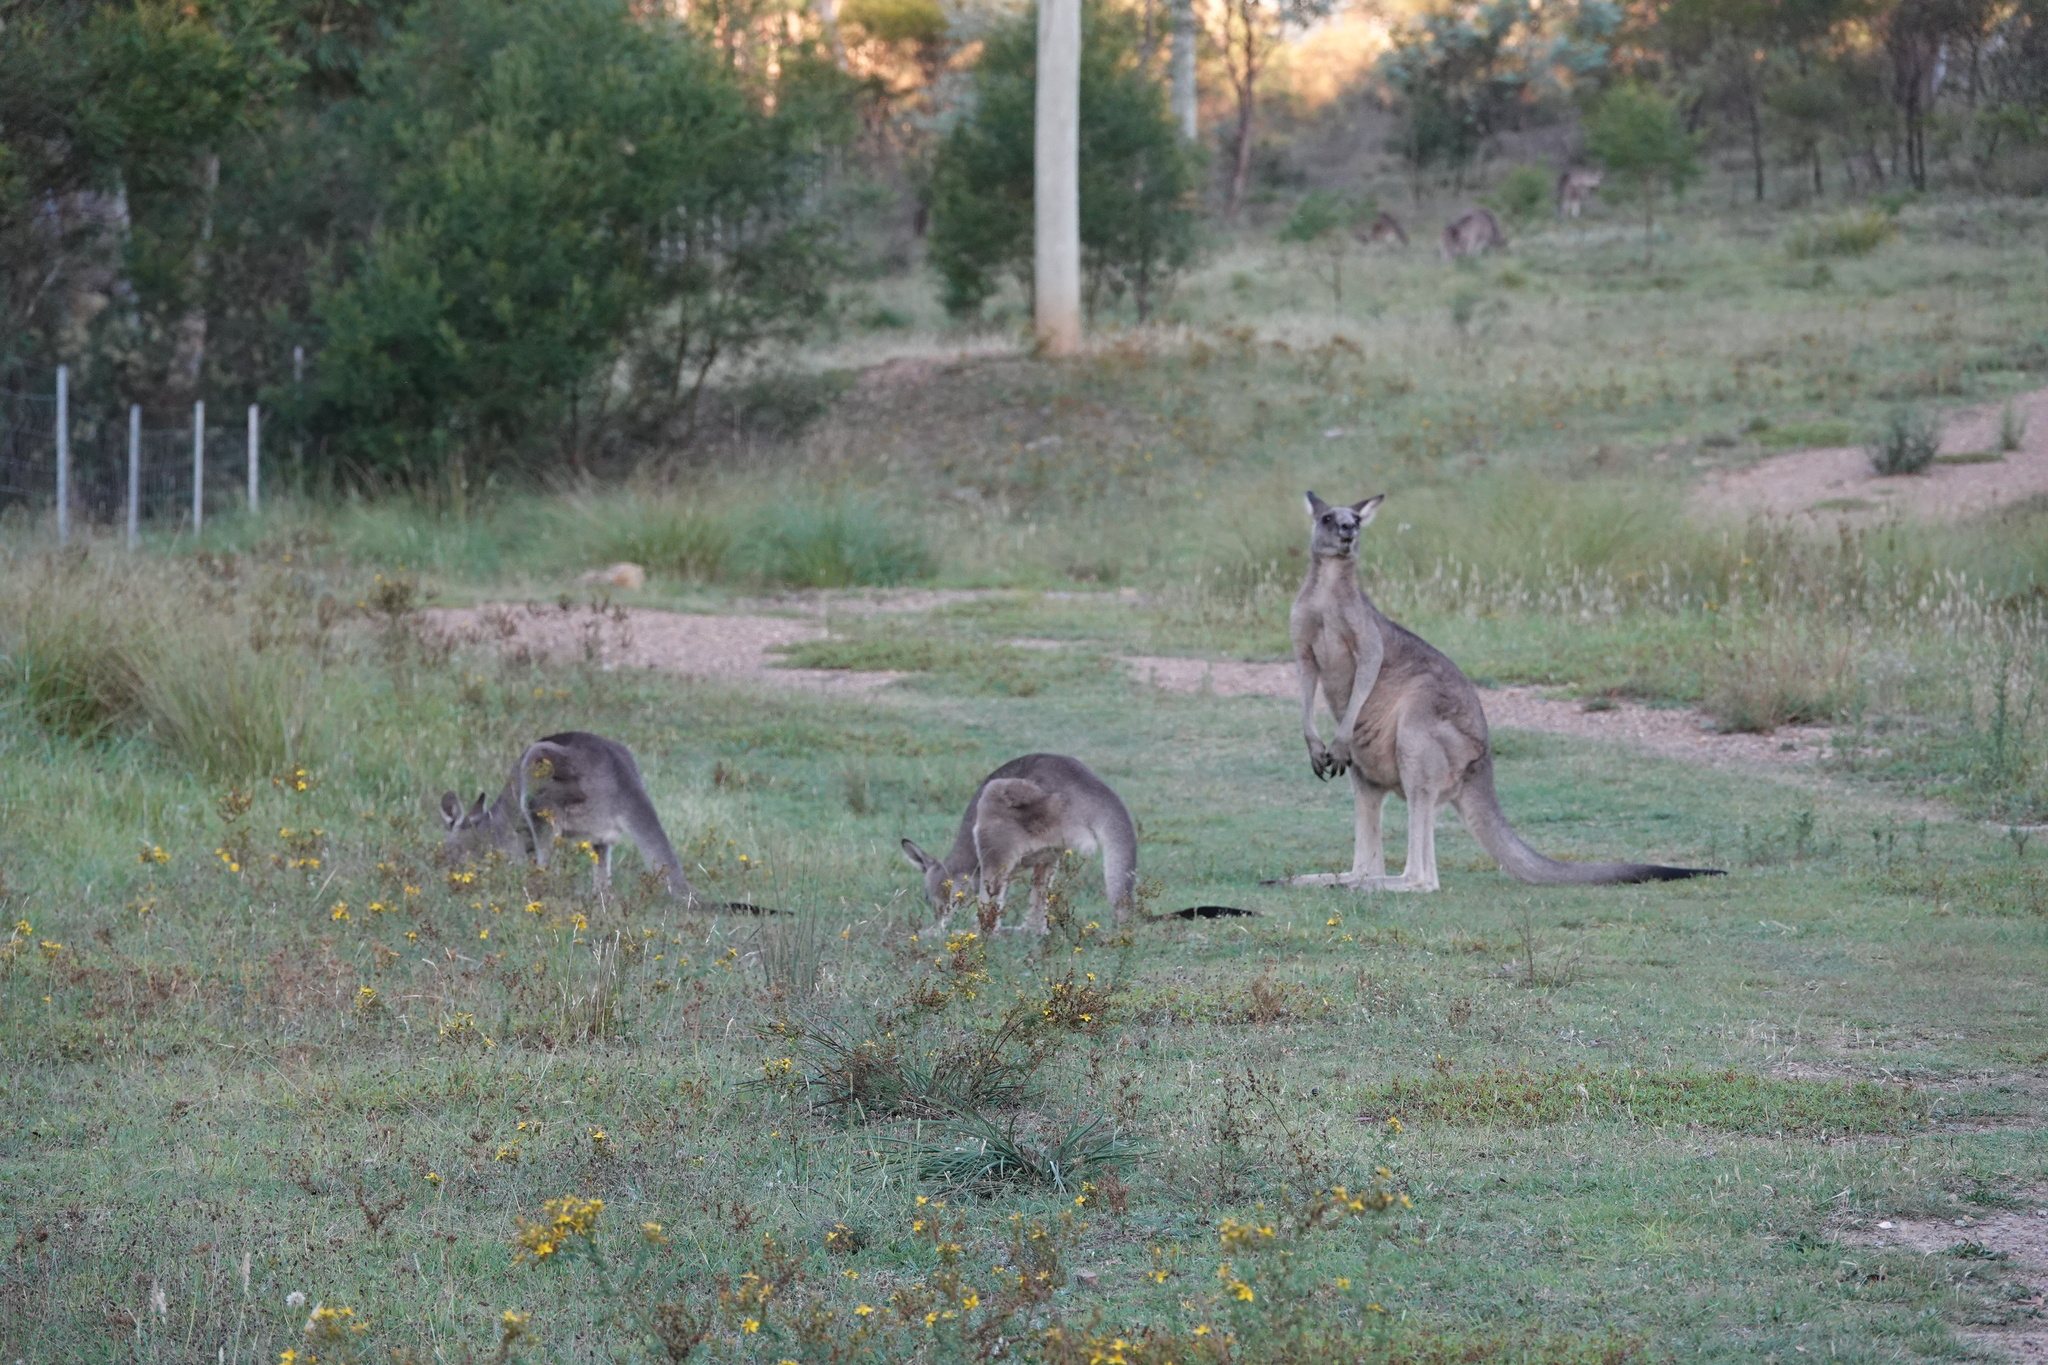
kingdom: Animalia
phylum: Chordata
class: Mammalia
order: Diprotodontia
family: Macropodidae
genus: Macropus
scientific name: Macropus giganteus
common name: Eastern grey kangaroo
